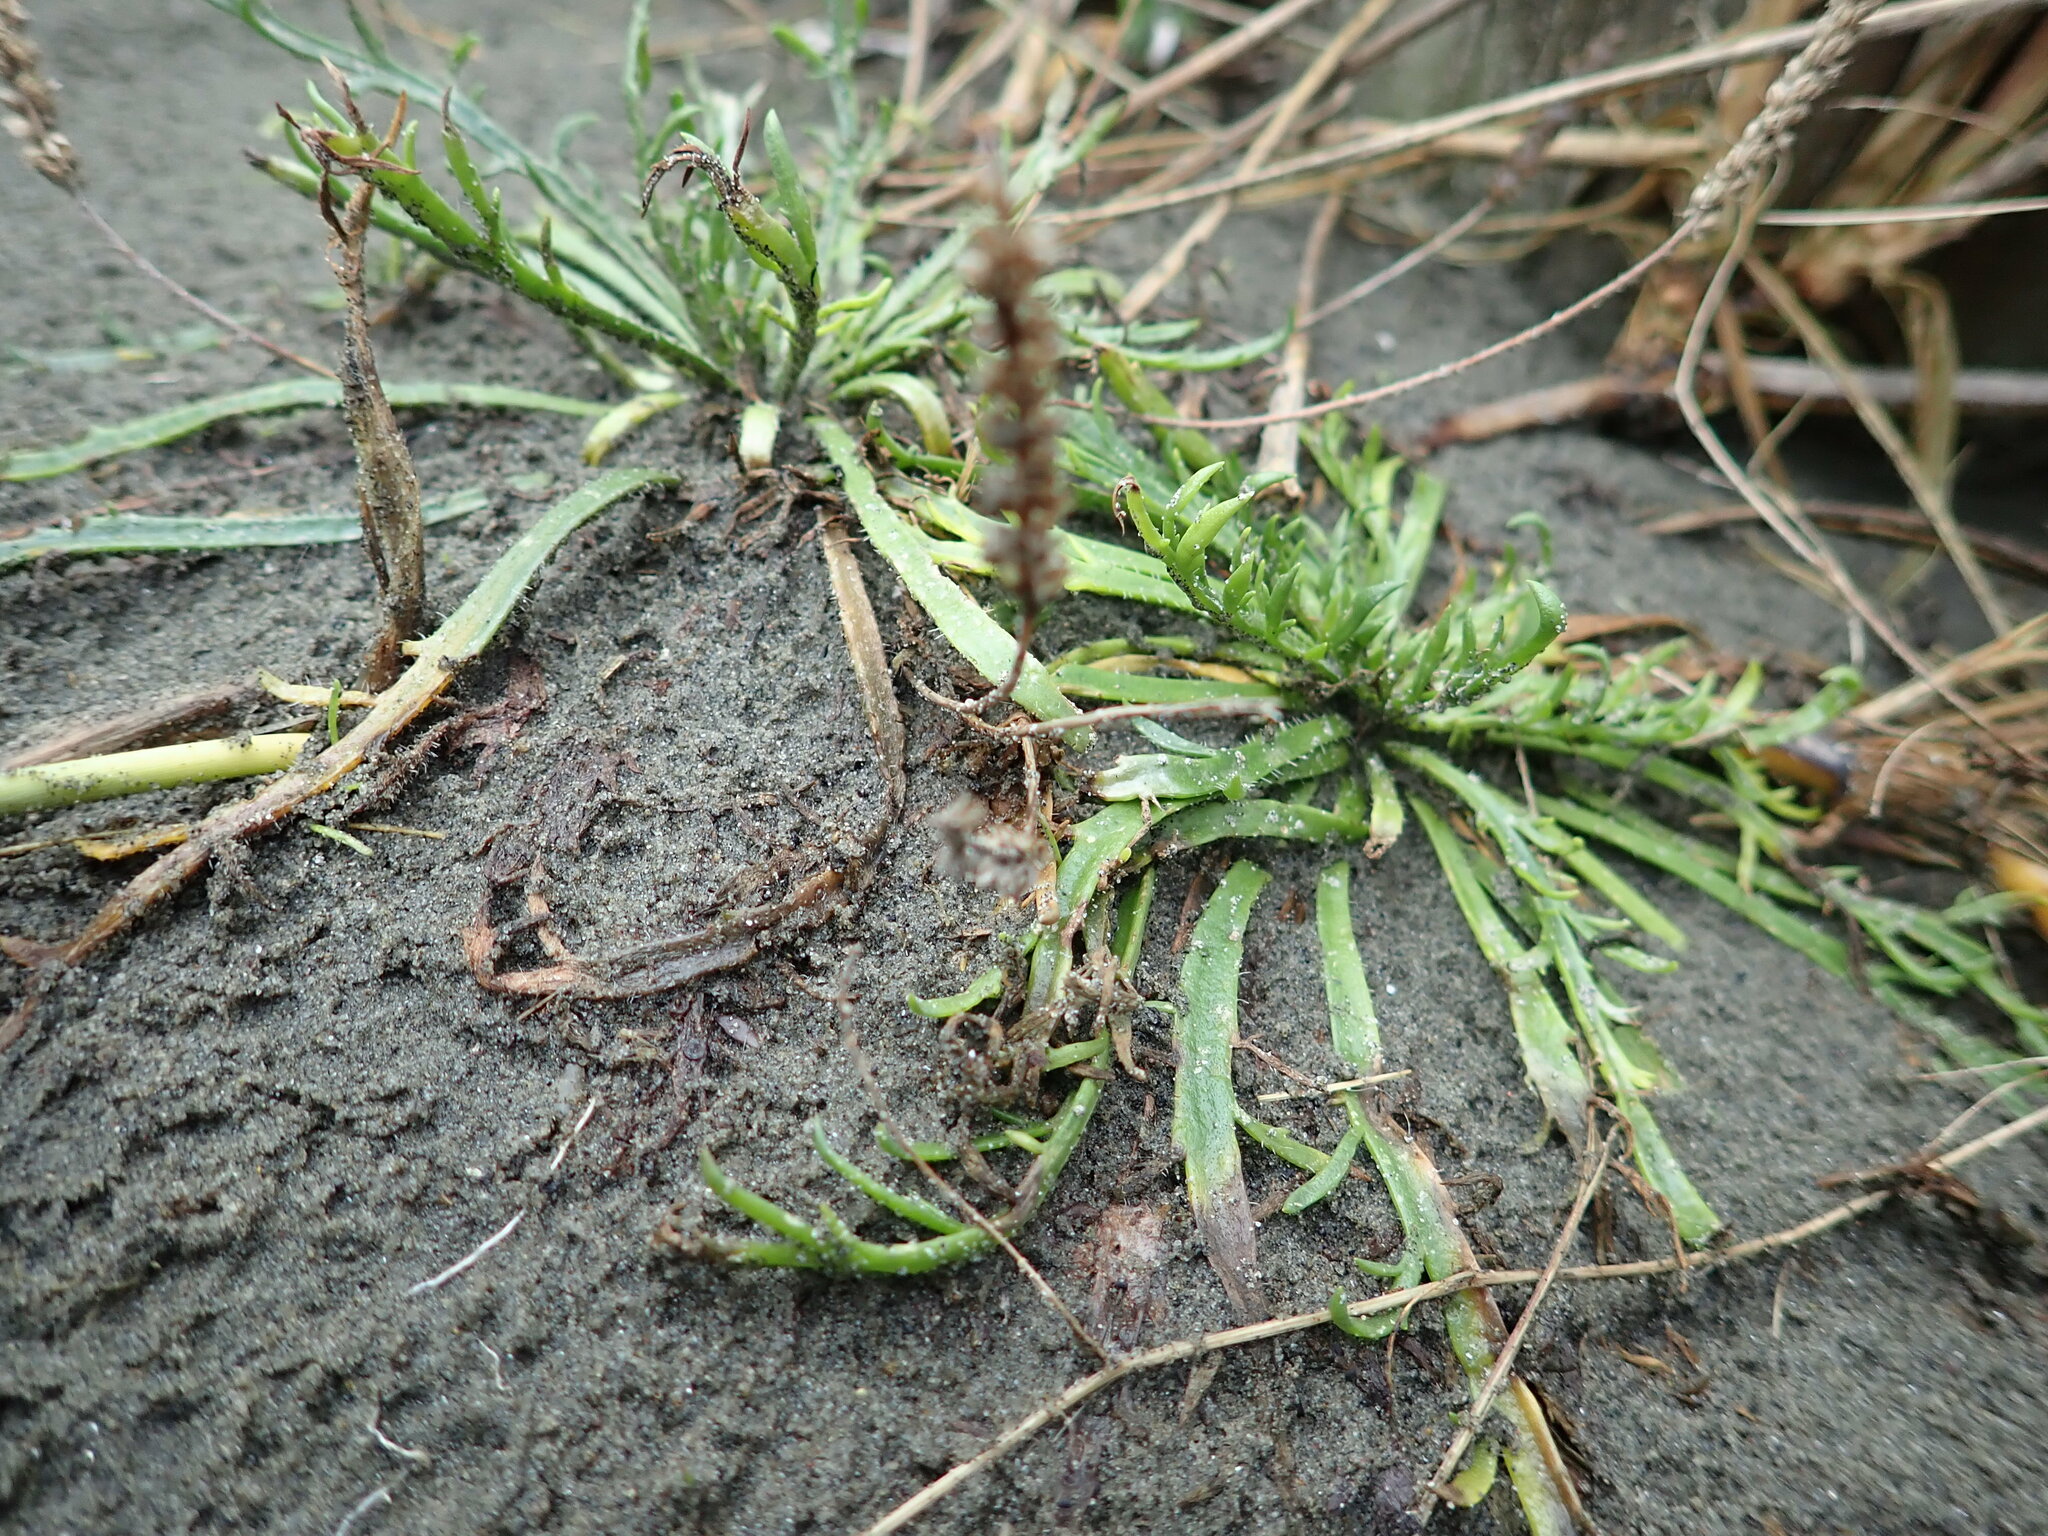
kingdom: Plantae
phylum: Tracheophyta
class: Magnoliopsida
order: Lamiales
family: Plantaginaceae
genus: Plantago
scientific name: Plantago coronopus
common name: Buck's-horn plantain
